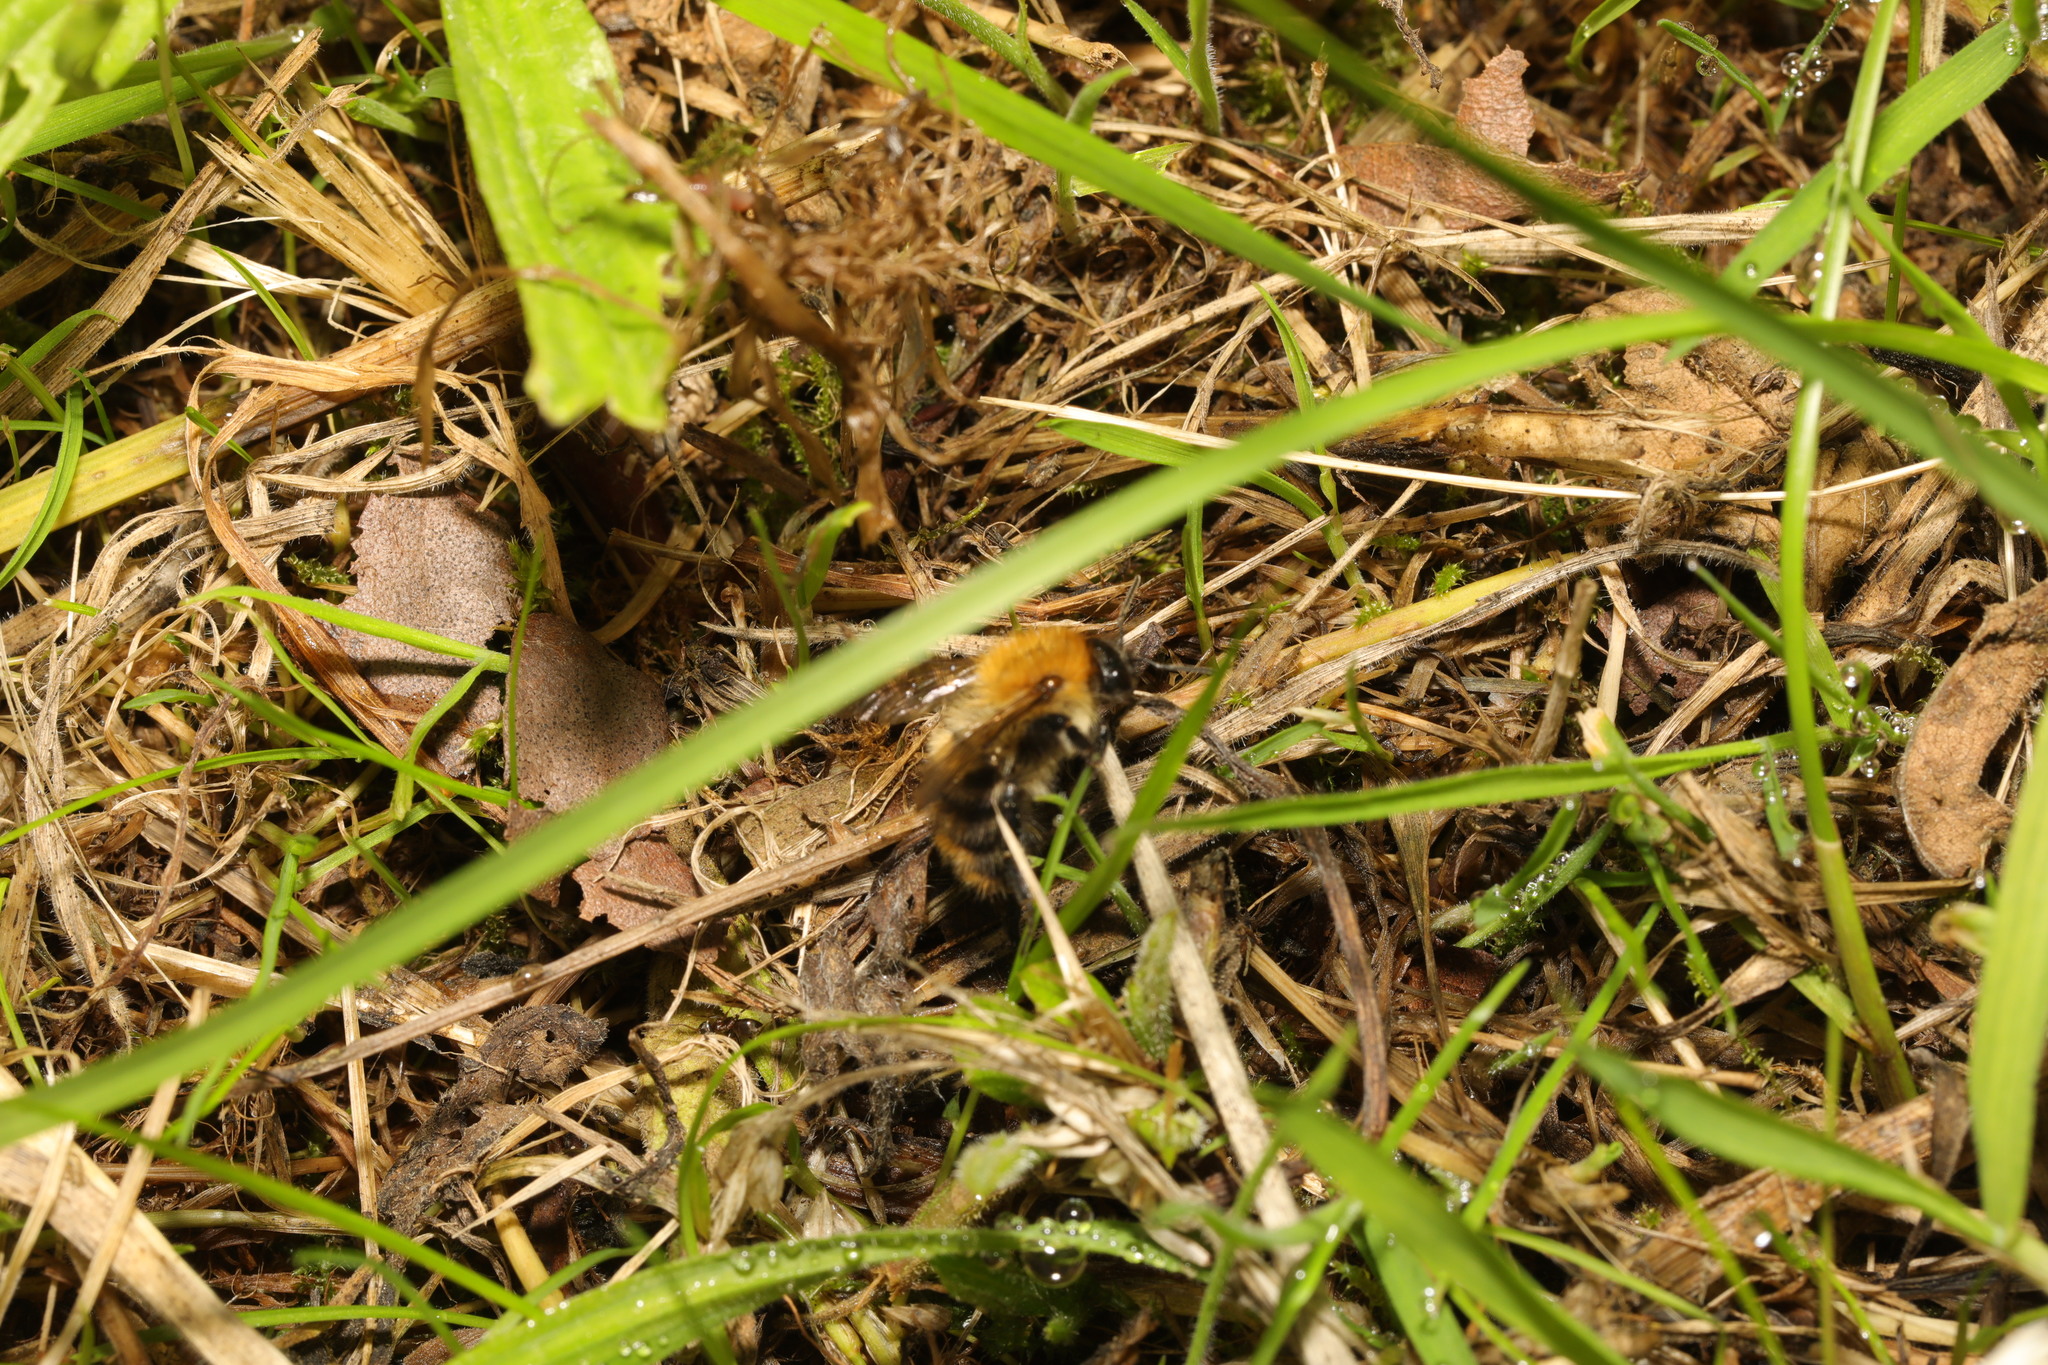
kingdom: Animalia
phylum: Arthropoda
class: Insecta
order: Hymenoptera
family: Apidae
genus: Bombus
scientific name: Bombus pascuorum
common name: Common carder bee
